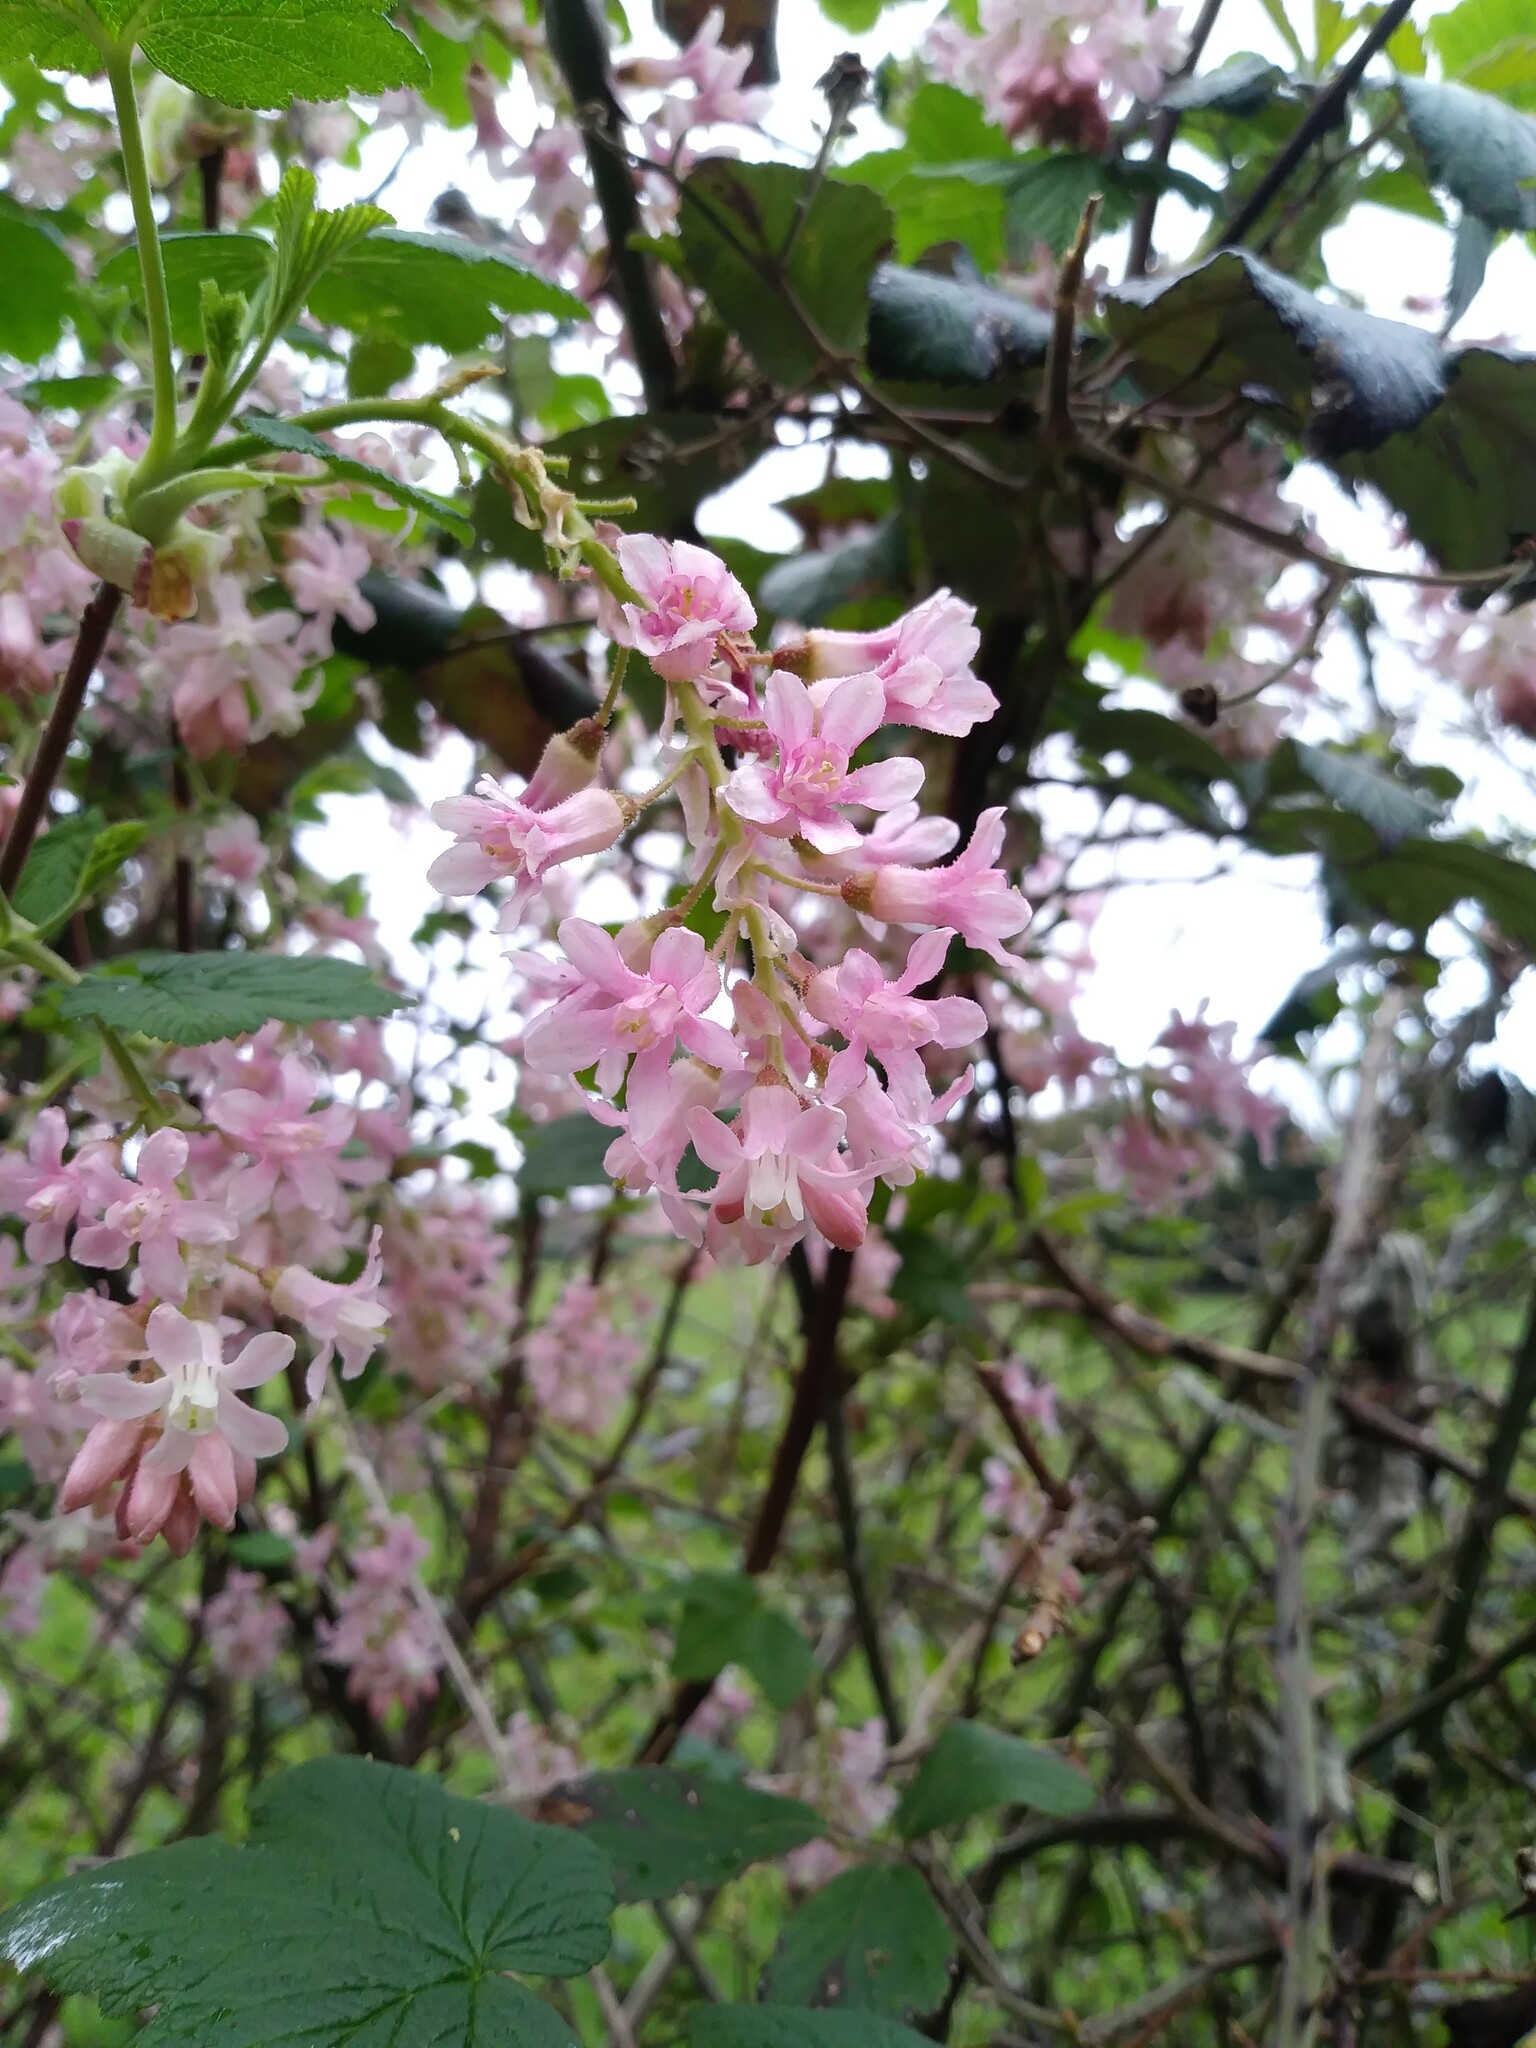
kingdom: Plantae
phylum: Tracheophyta
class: Magnoliopsida
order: Saxifragales
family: Grossulariaceae
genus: Ribes
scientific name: Ribes sanguineum
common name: Flowering currant
